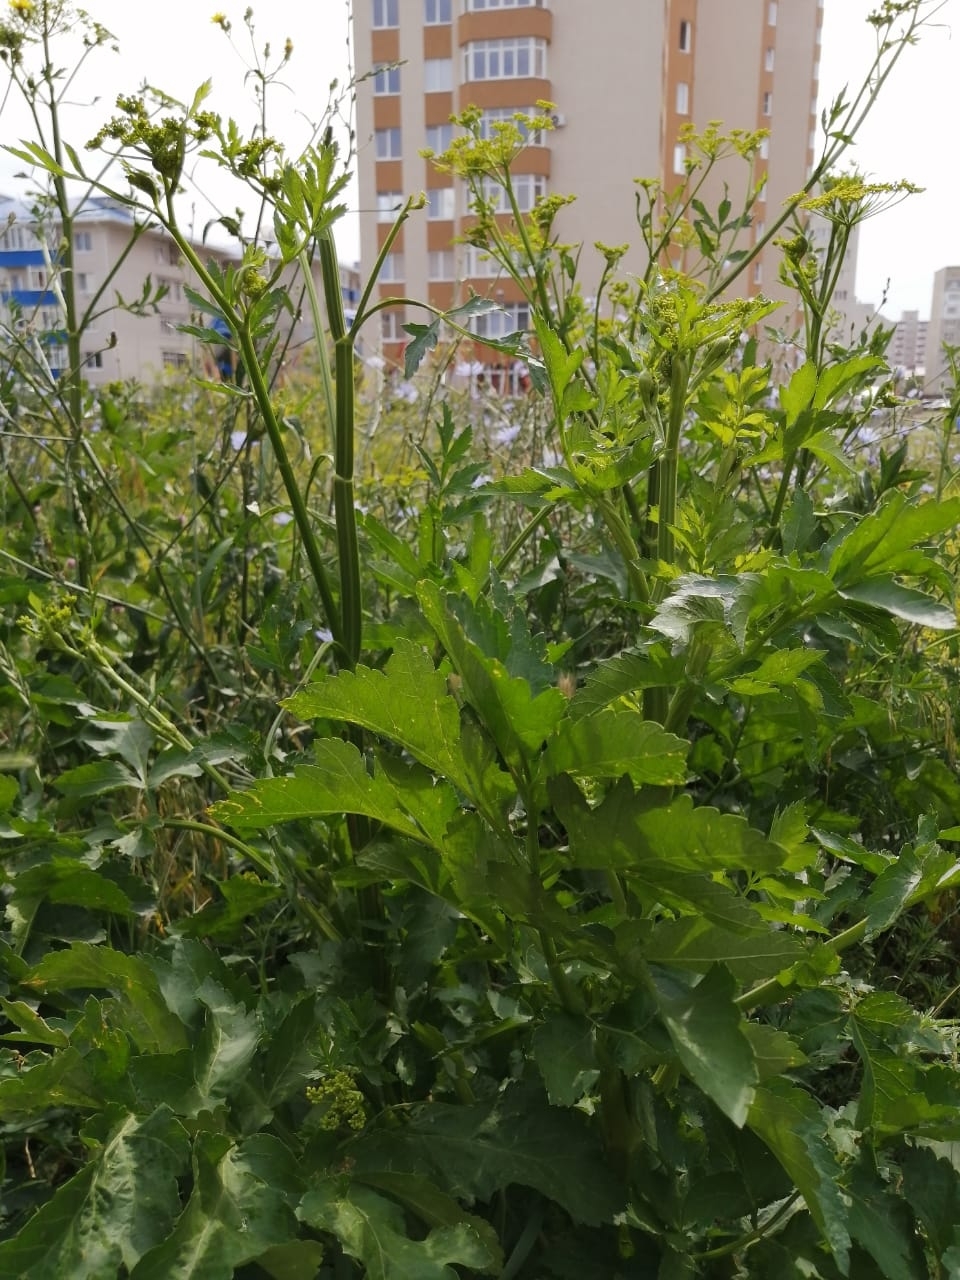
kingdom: Plantae
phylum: Tracheophyta
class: Magnoliopsida
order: Apiales
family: Apiaceae
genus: Pastinaca
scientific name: Pastinaca sativa
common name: Wild parsnip
